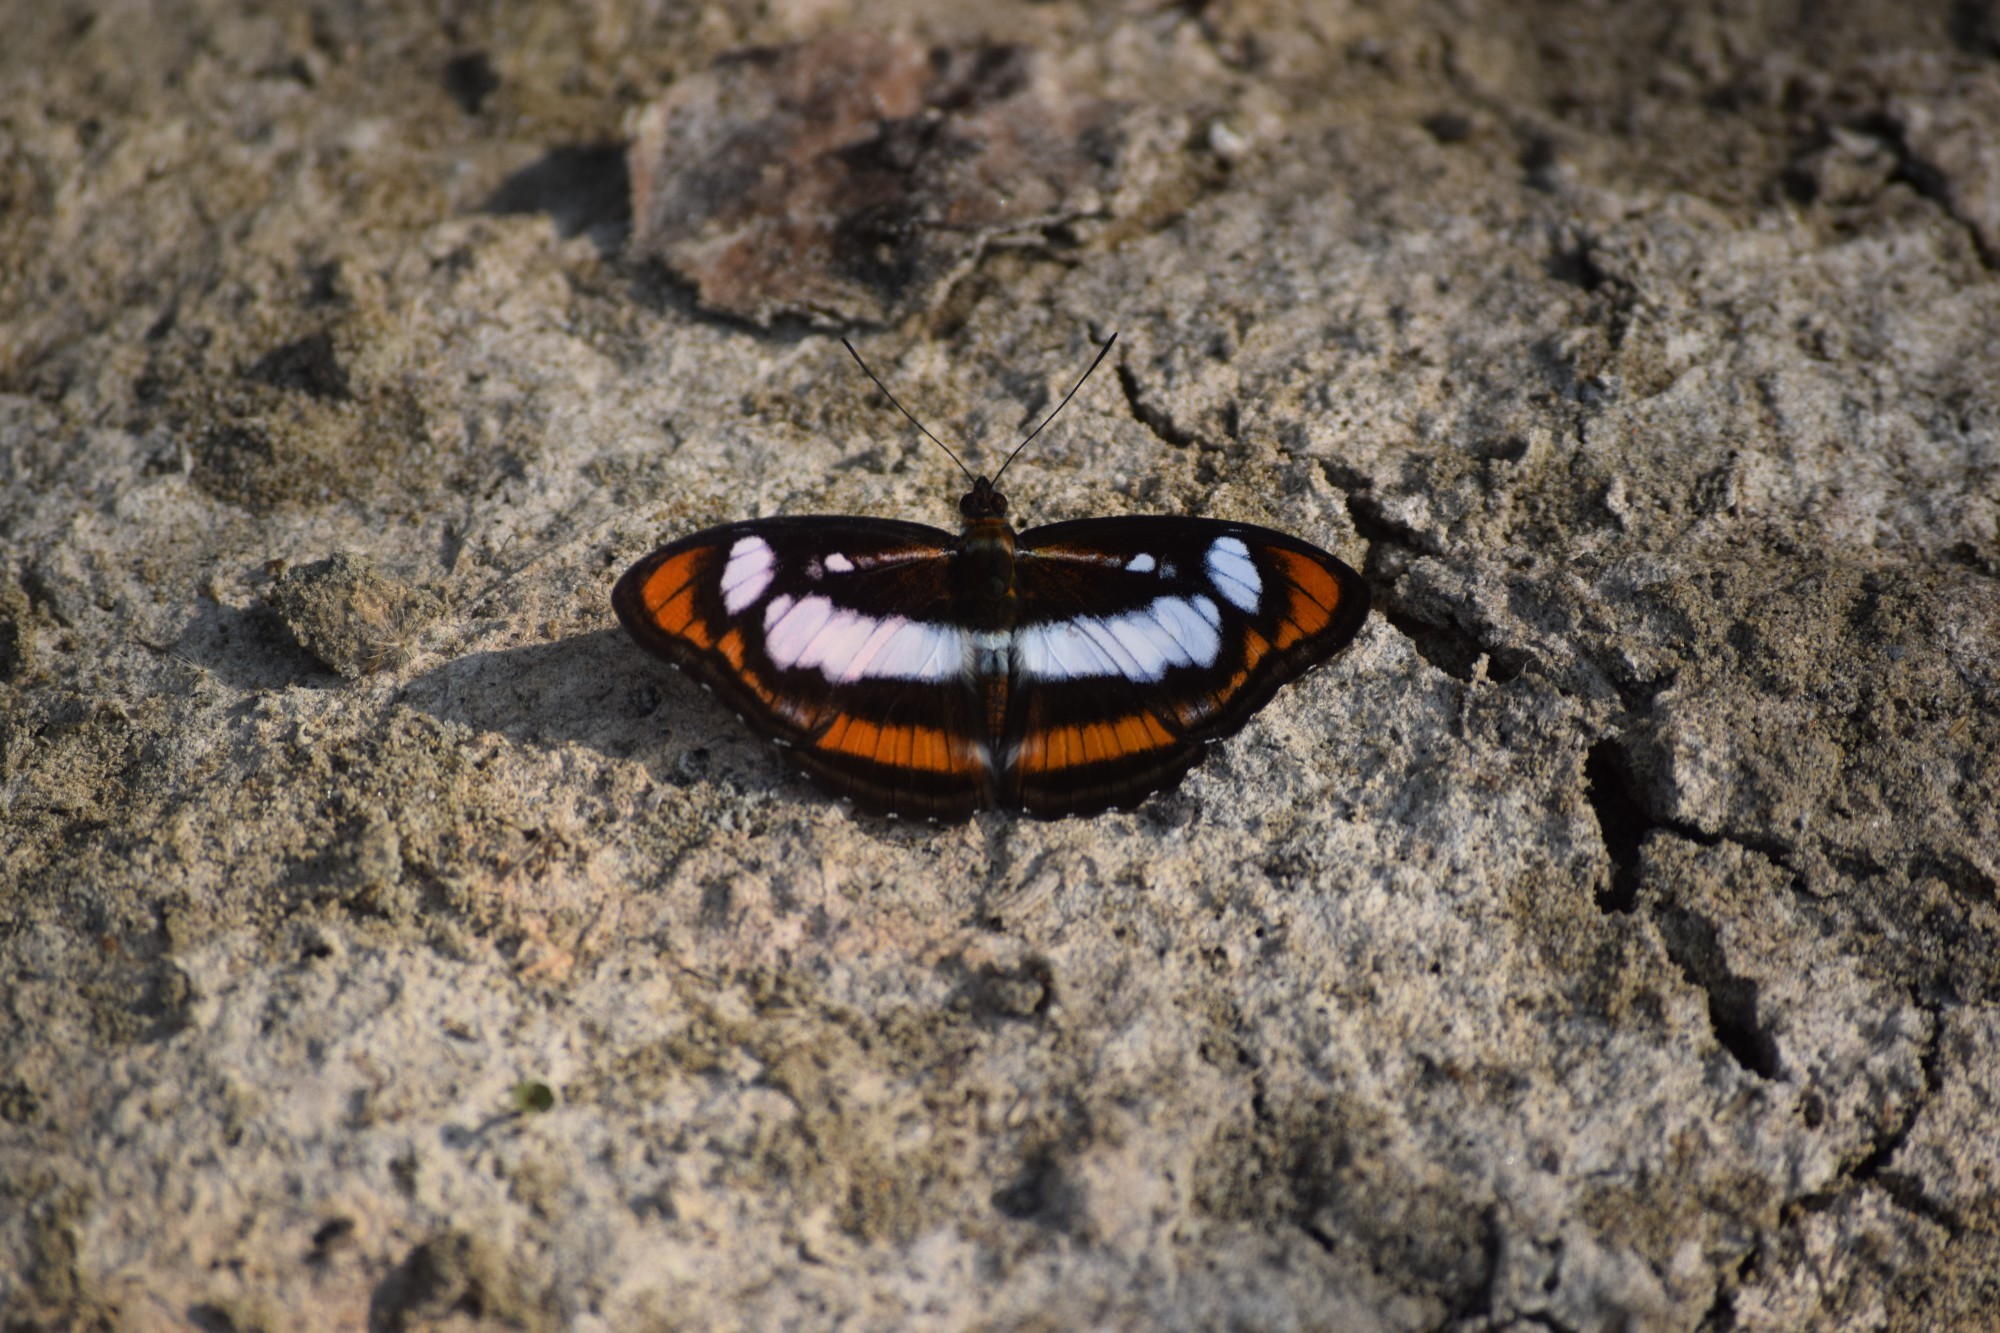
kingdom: Animalia
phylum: Arthropoda
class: Insecta
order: Lepidoptera
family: Nymphalidae
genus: Parathyma
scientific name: Parathyma nefte
